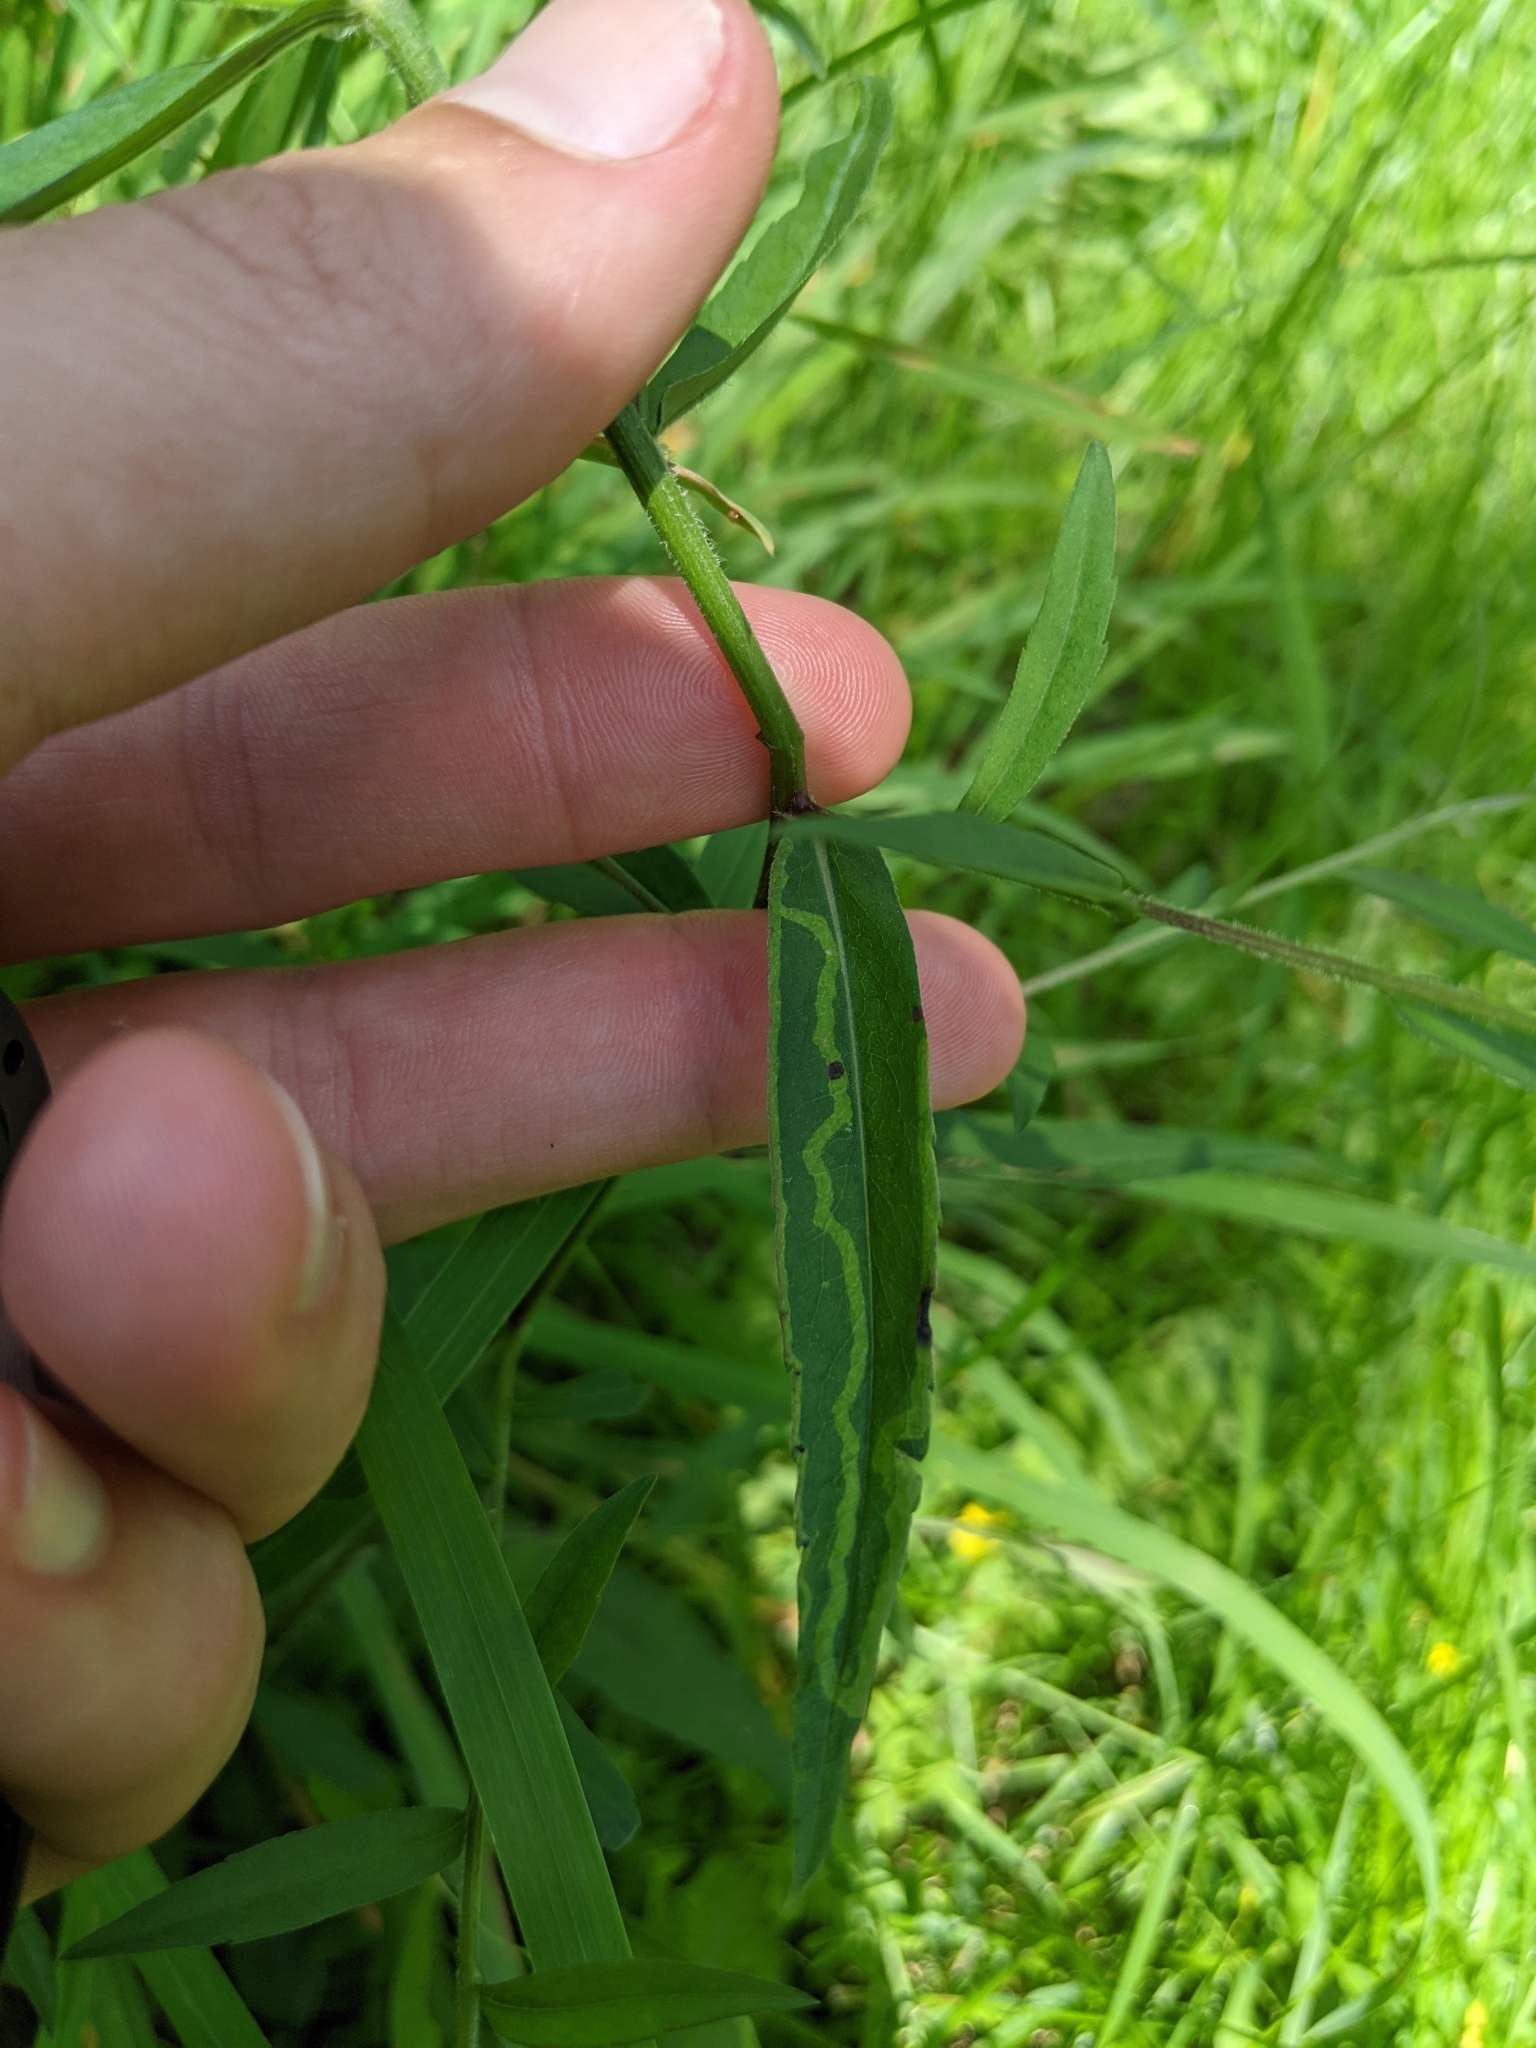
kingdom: Animalia
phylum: Arthropoda
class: Insecta
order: Diptera
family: Agromyzidae
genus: Ophiomyia
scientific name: Ophiomyia parda
